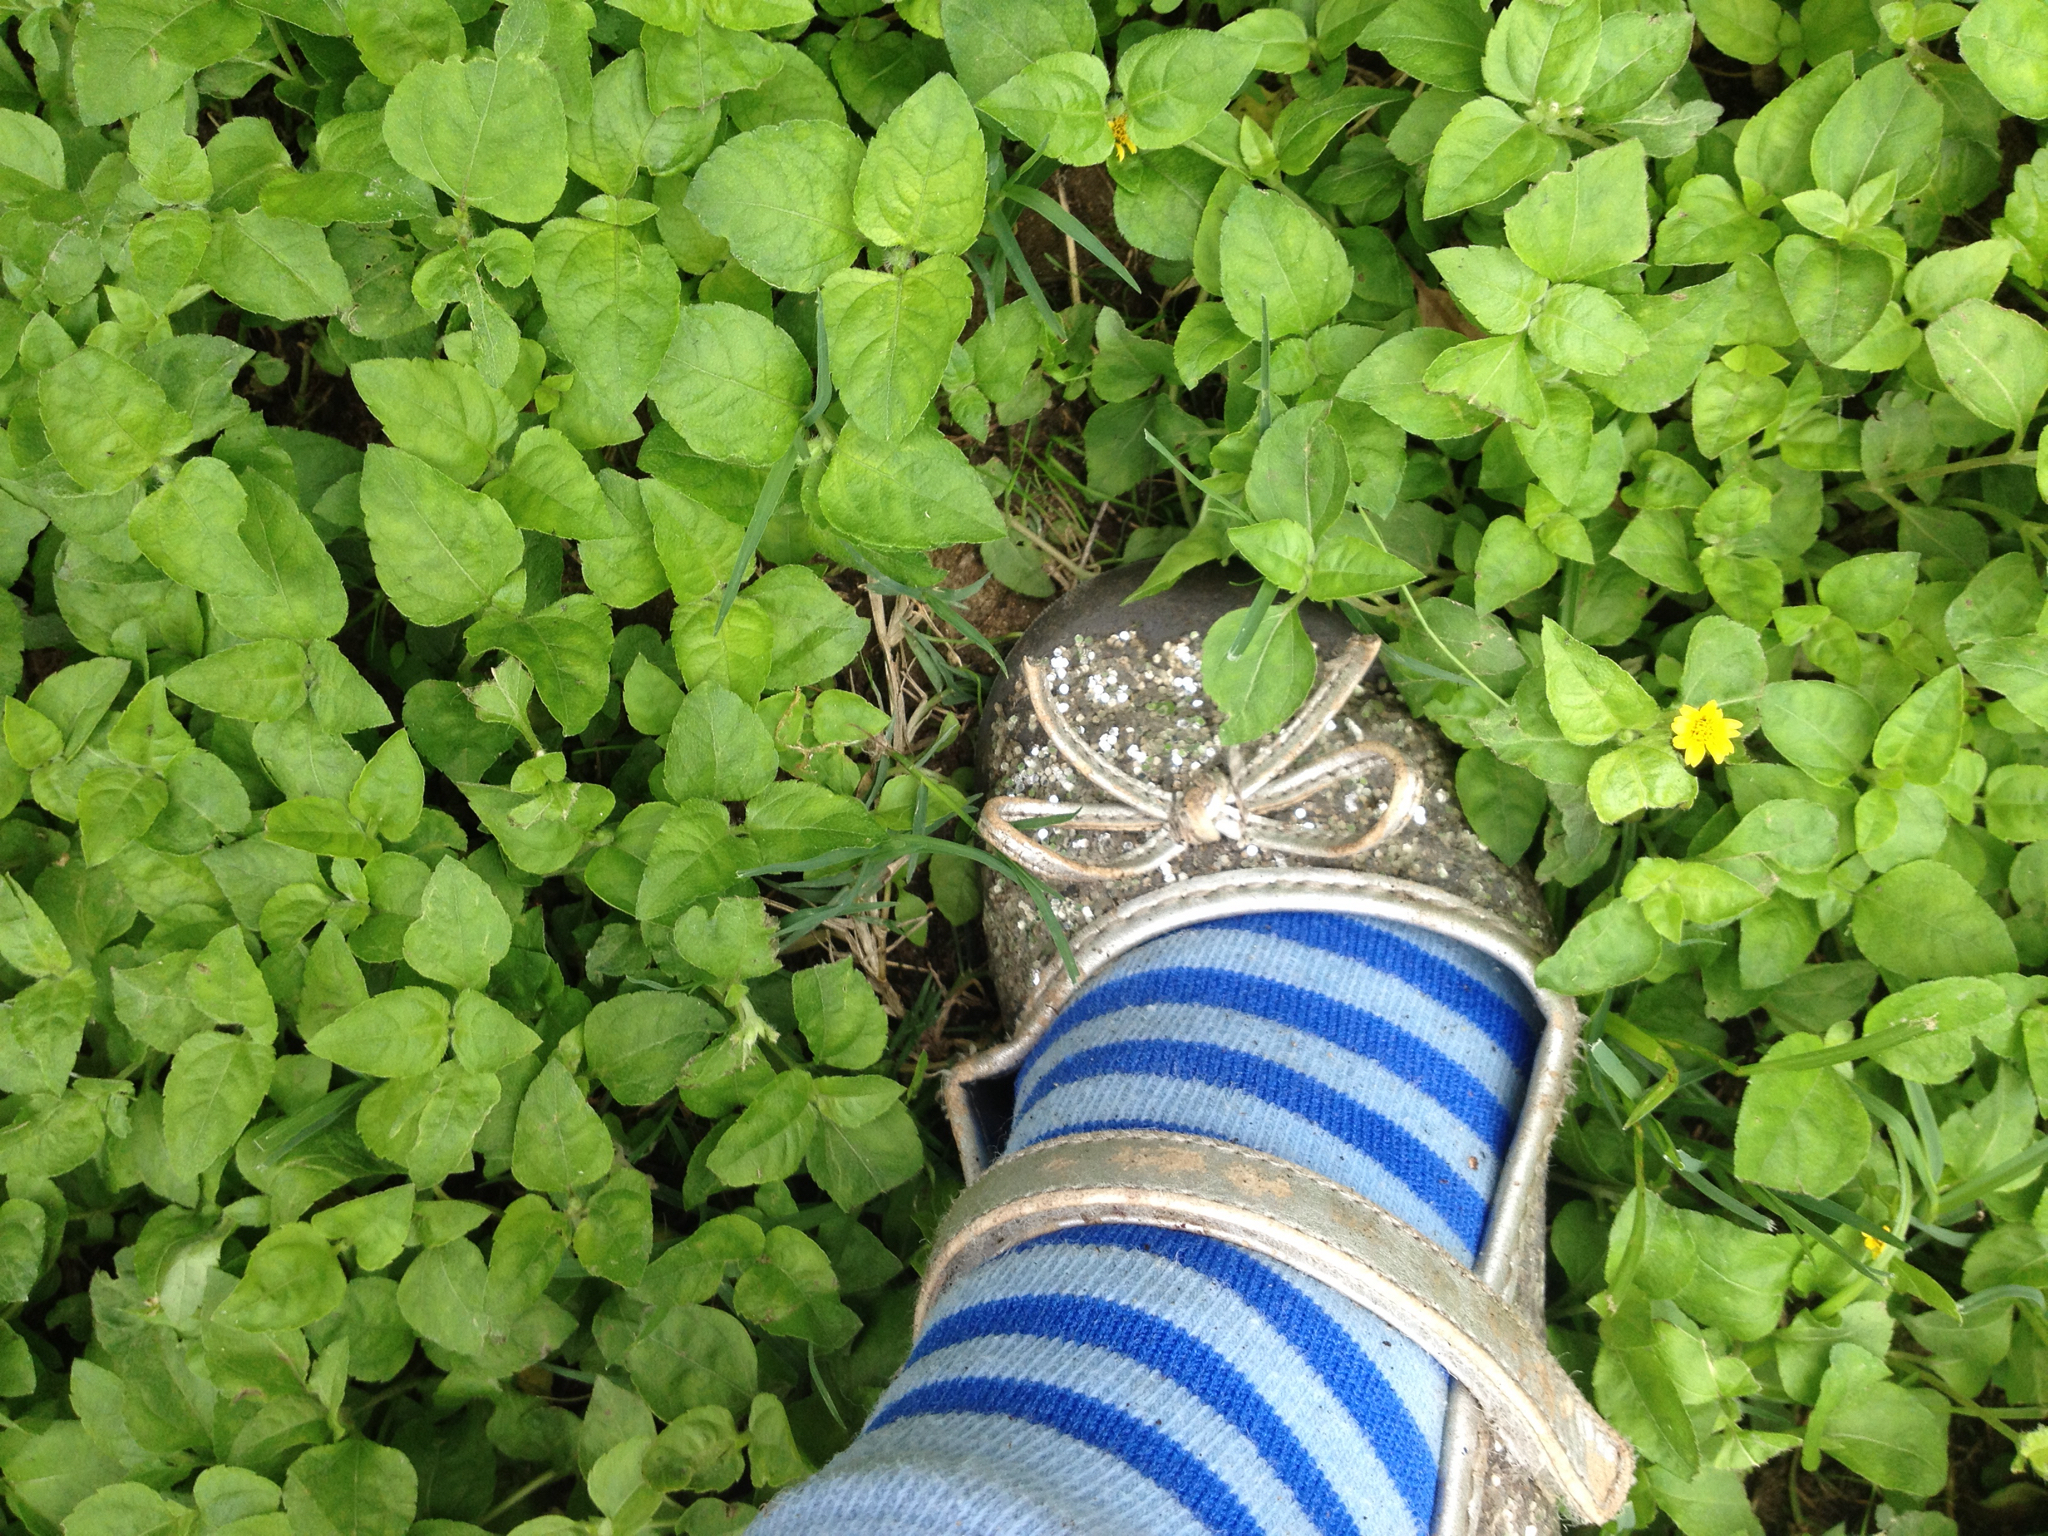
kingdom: Plantae
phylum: Tracheophyta
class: Magnoliopsida
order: Asterales
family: Asteraceae
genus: Calyptocarpus
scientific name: Calyptocarpus vialis
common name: Straggler daisy
